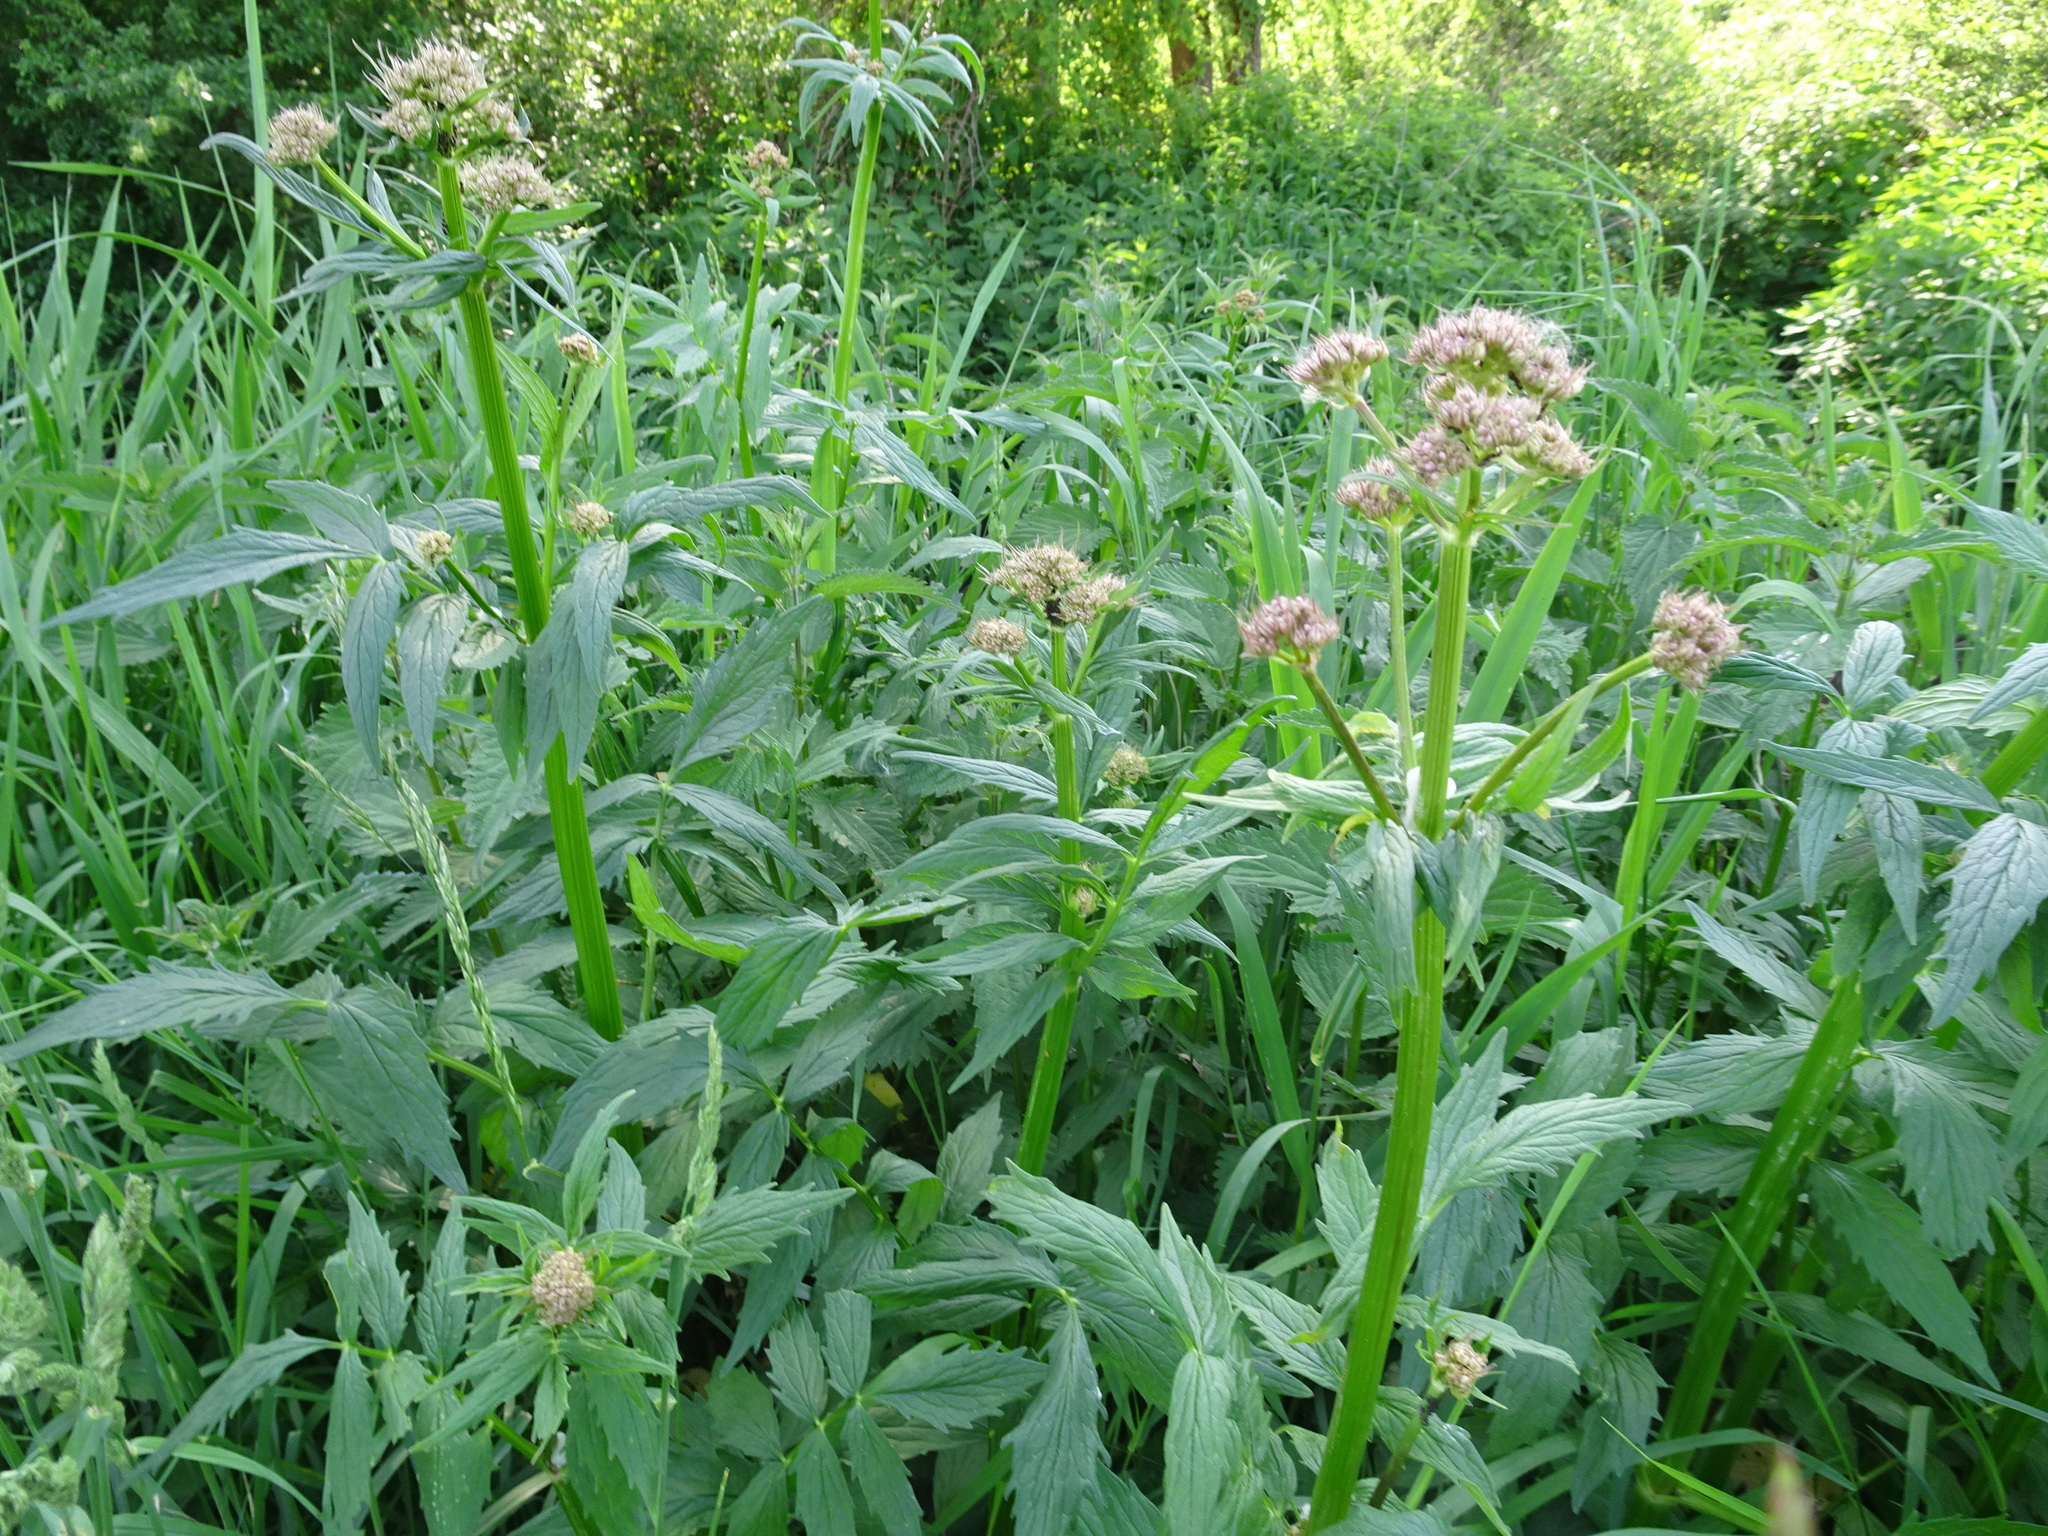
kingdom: Plantae
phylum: Tracheophyta
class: Magnoliopsida
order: Dipsacales
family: Caprifoliaceae
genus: Valeriana
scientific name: Valeriana officinalis
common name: Common valerian
